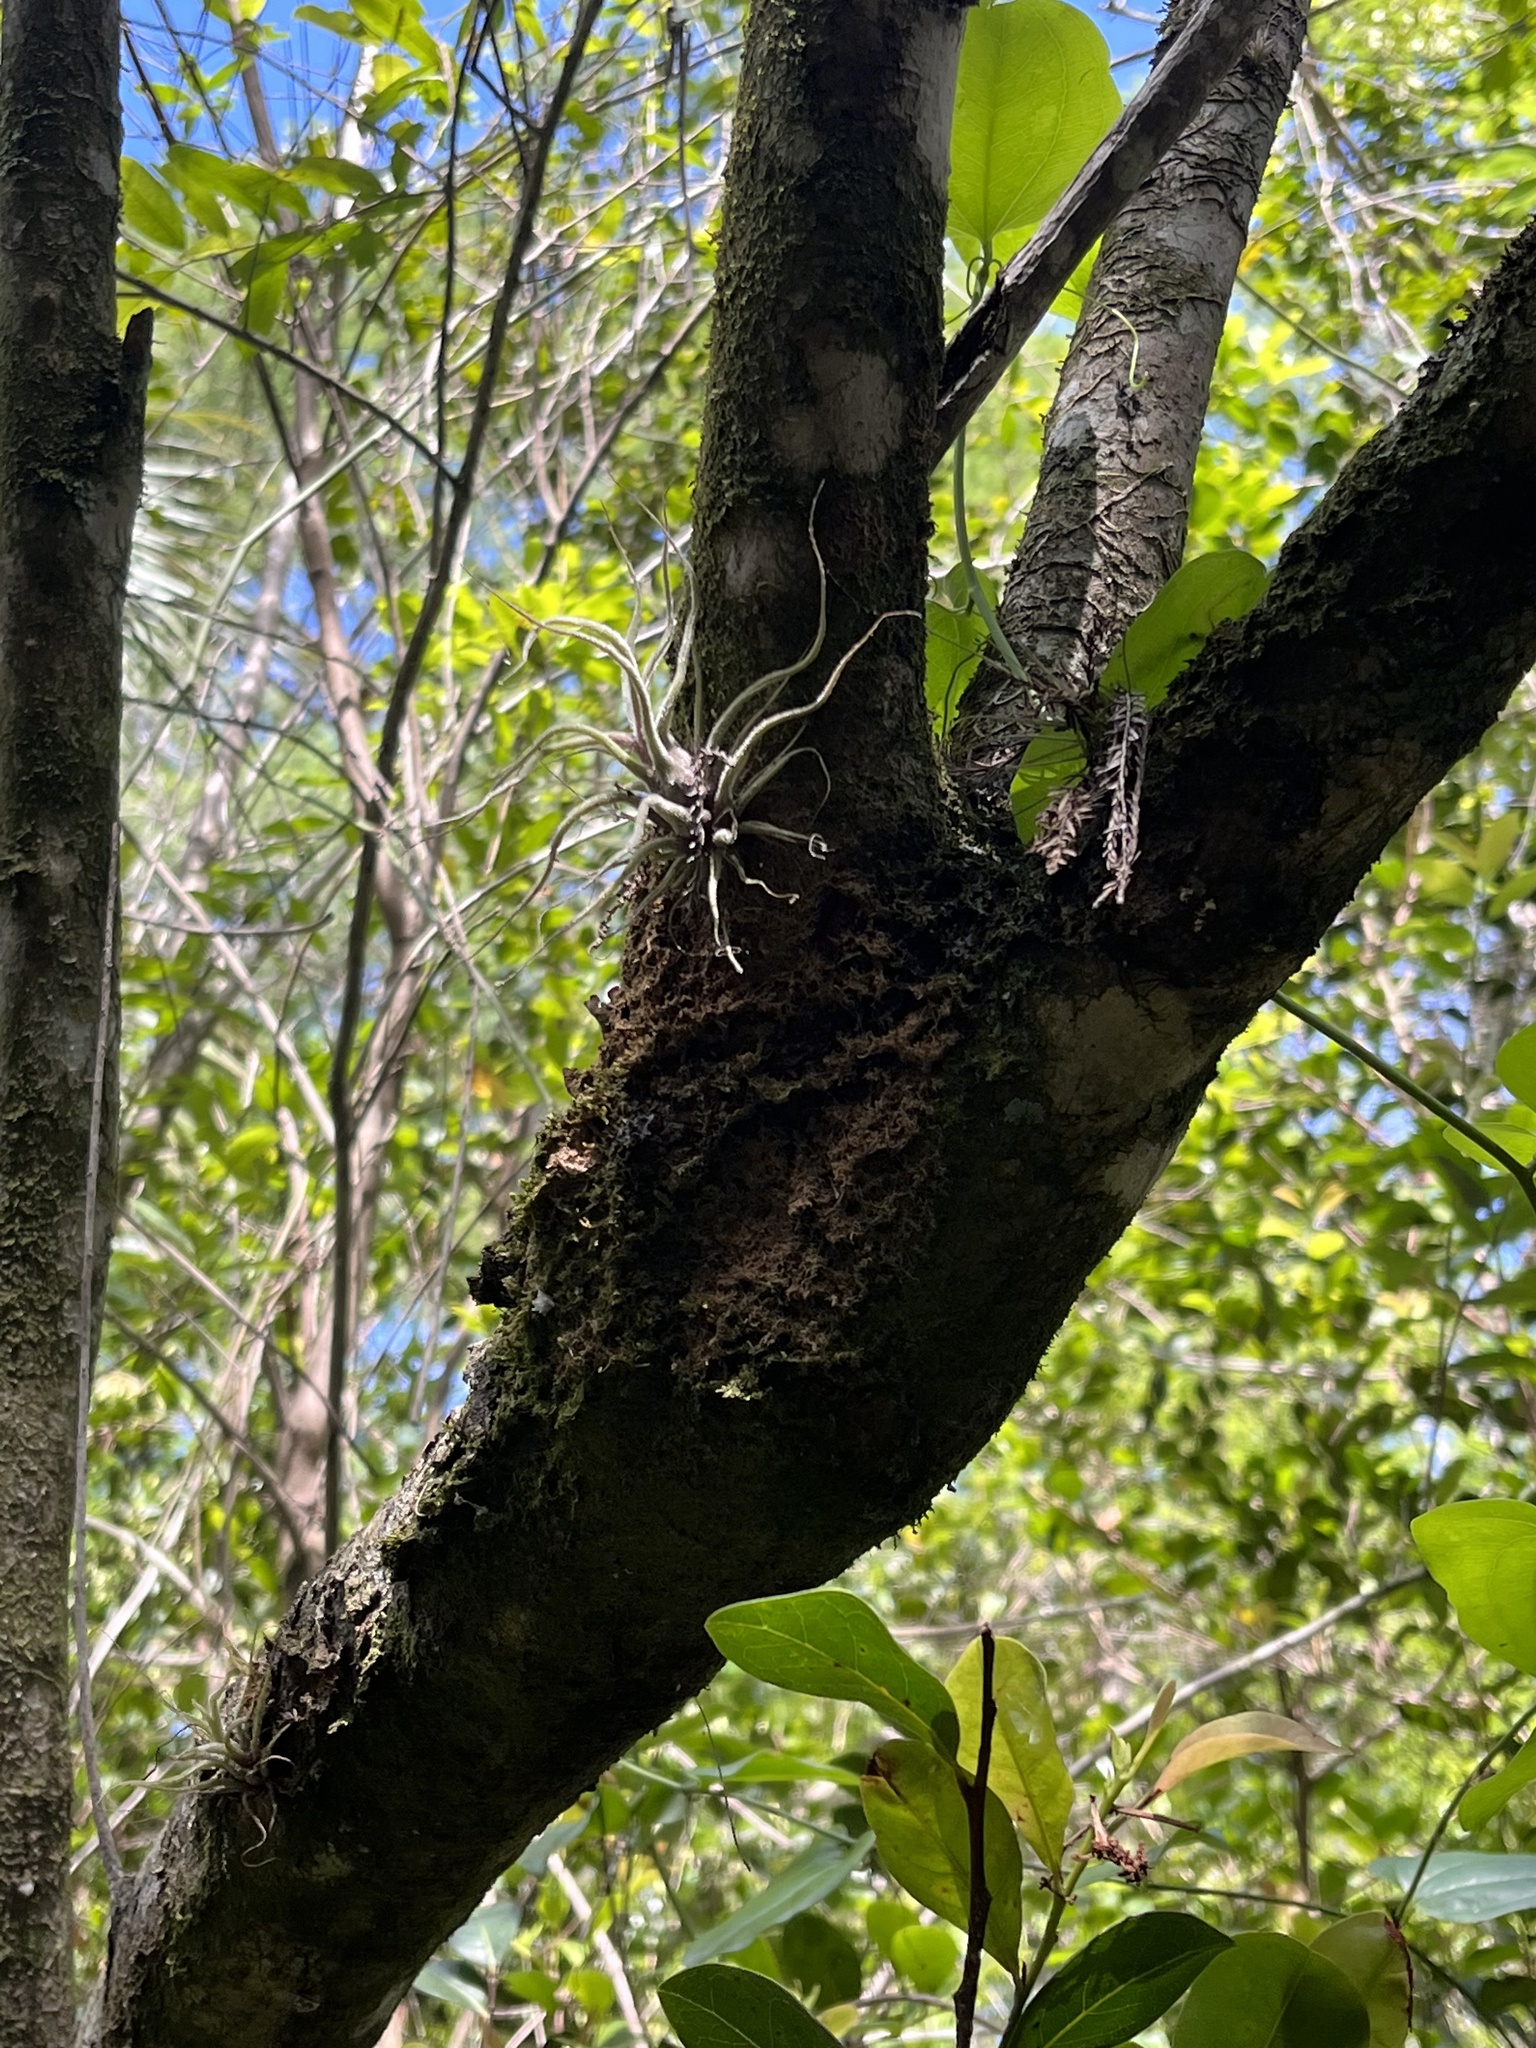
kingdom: Plantae
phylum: Tracheophyta
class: Liliopsida
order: Poales
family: Bromeliaceae
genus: Tillandsia
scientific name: Tillandsia pruinosa
